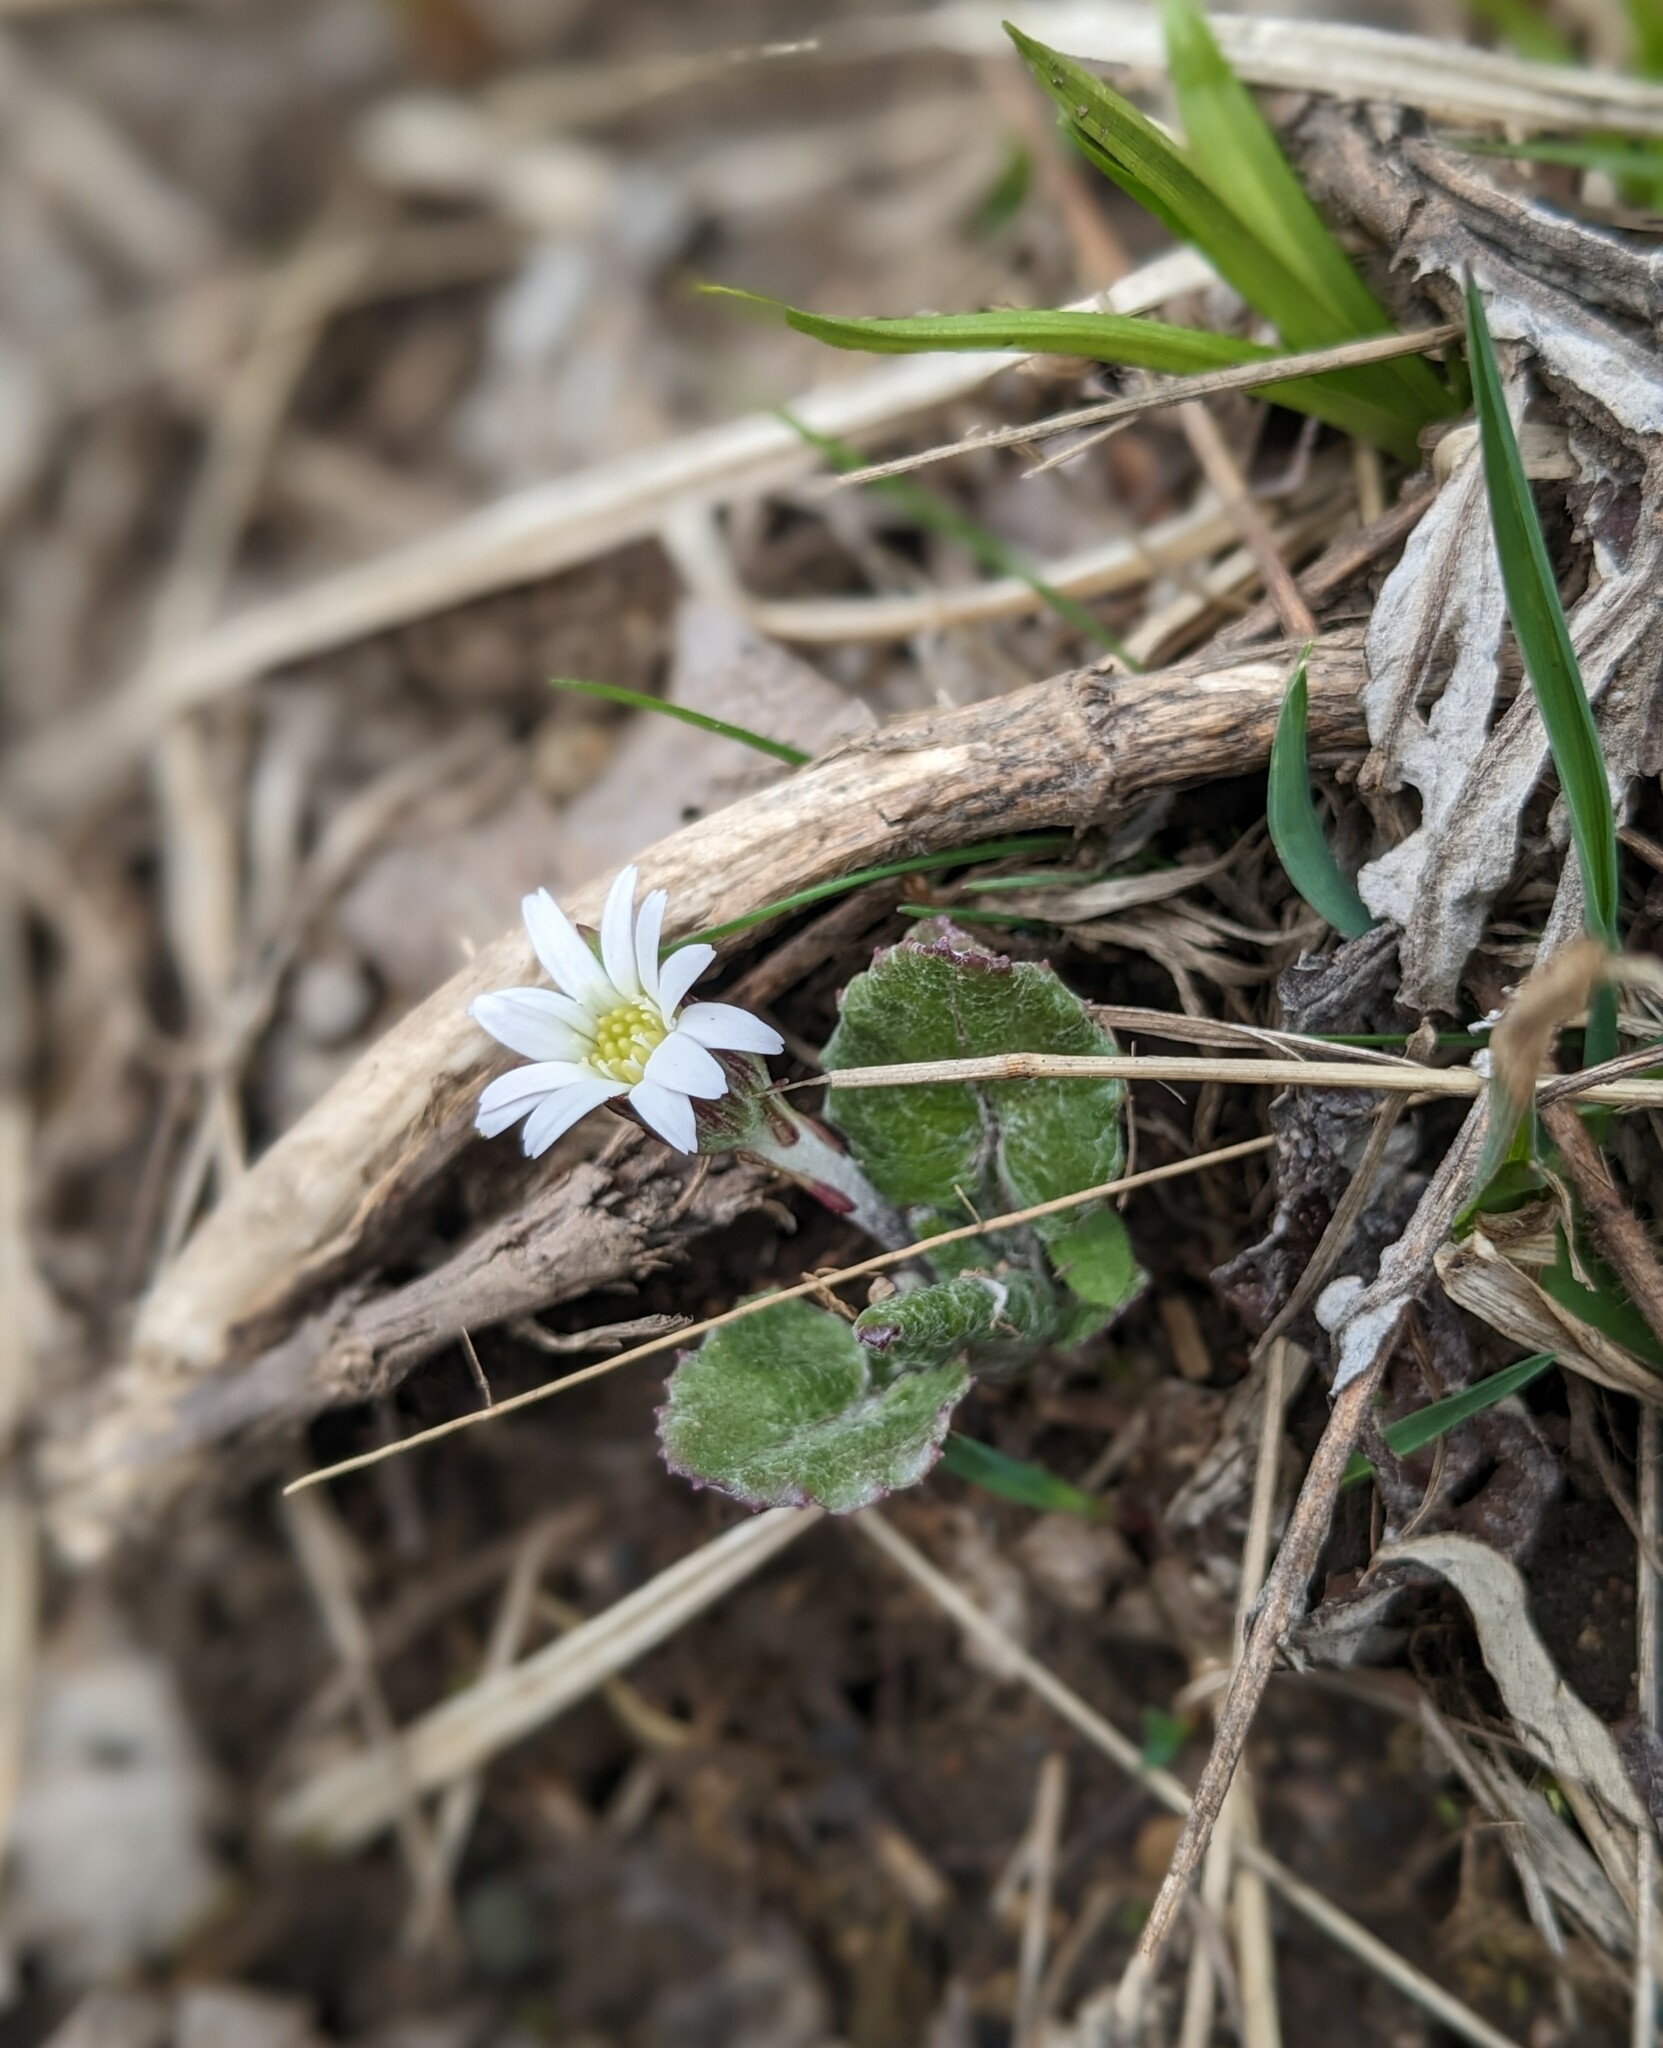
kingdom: Plantae
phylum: Tracheophyta
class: Magnoliopsida
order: Asterales
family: Asteraceae
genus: Leibnitzia
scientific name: Leibnitzia anandria
